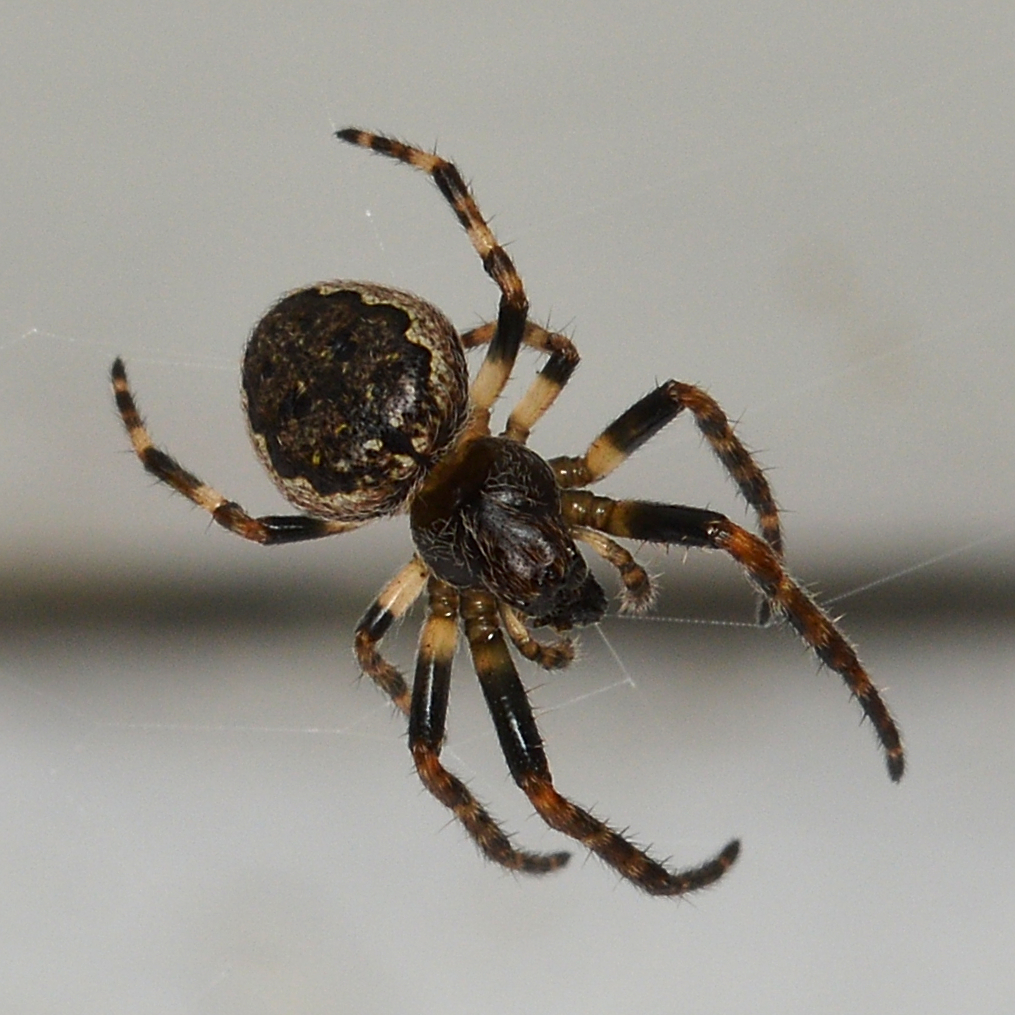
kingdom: Animalia
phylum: Arthropoda
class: Arachnida
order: Araneae
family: Araneidae
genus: Nuctenea
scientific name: Nuctenea umbratica
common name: Toad spider
